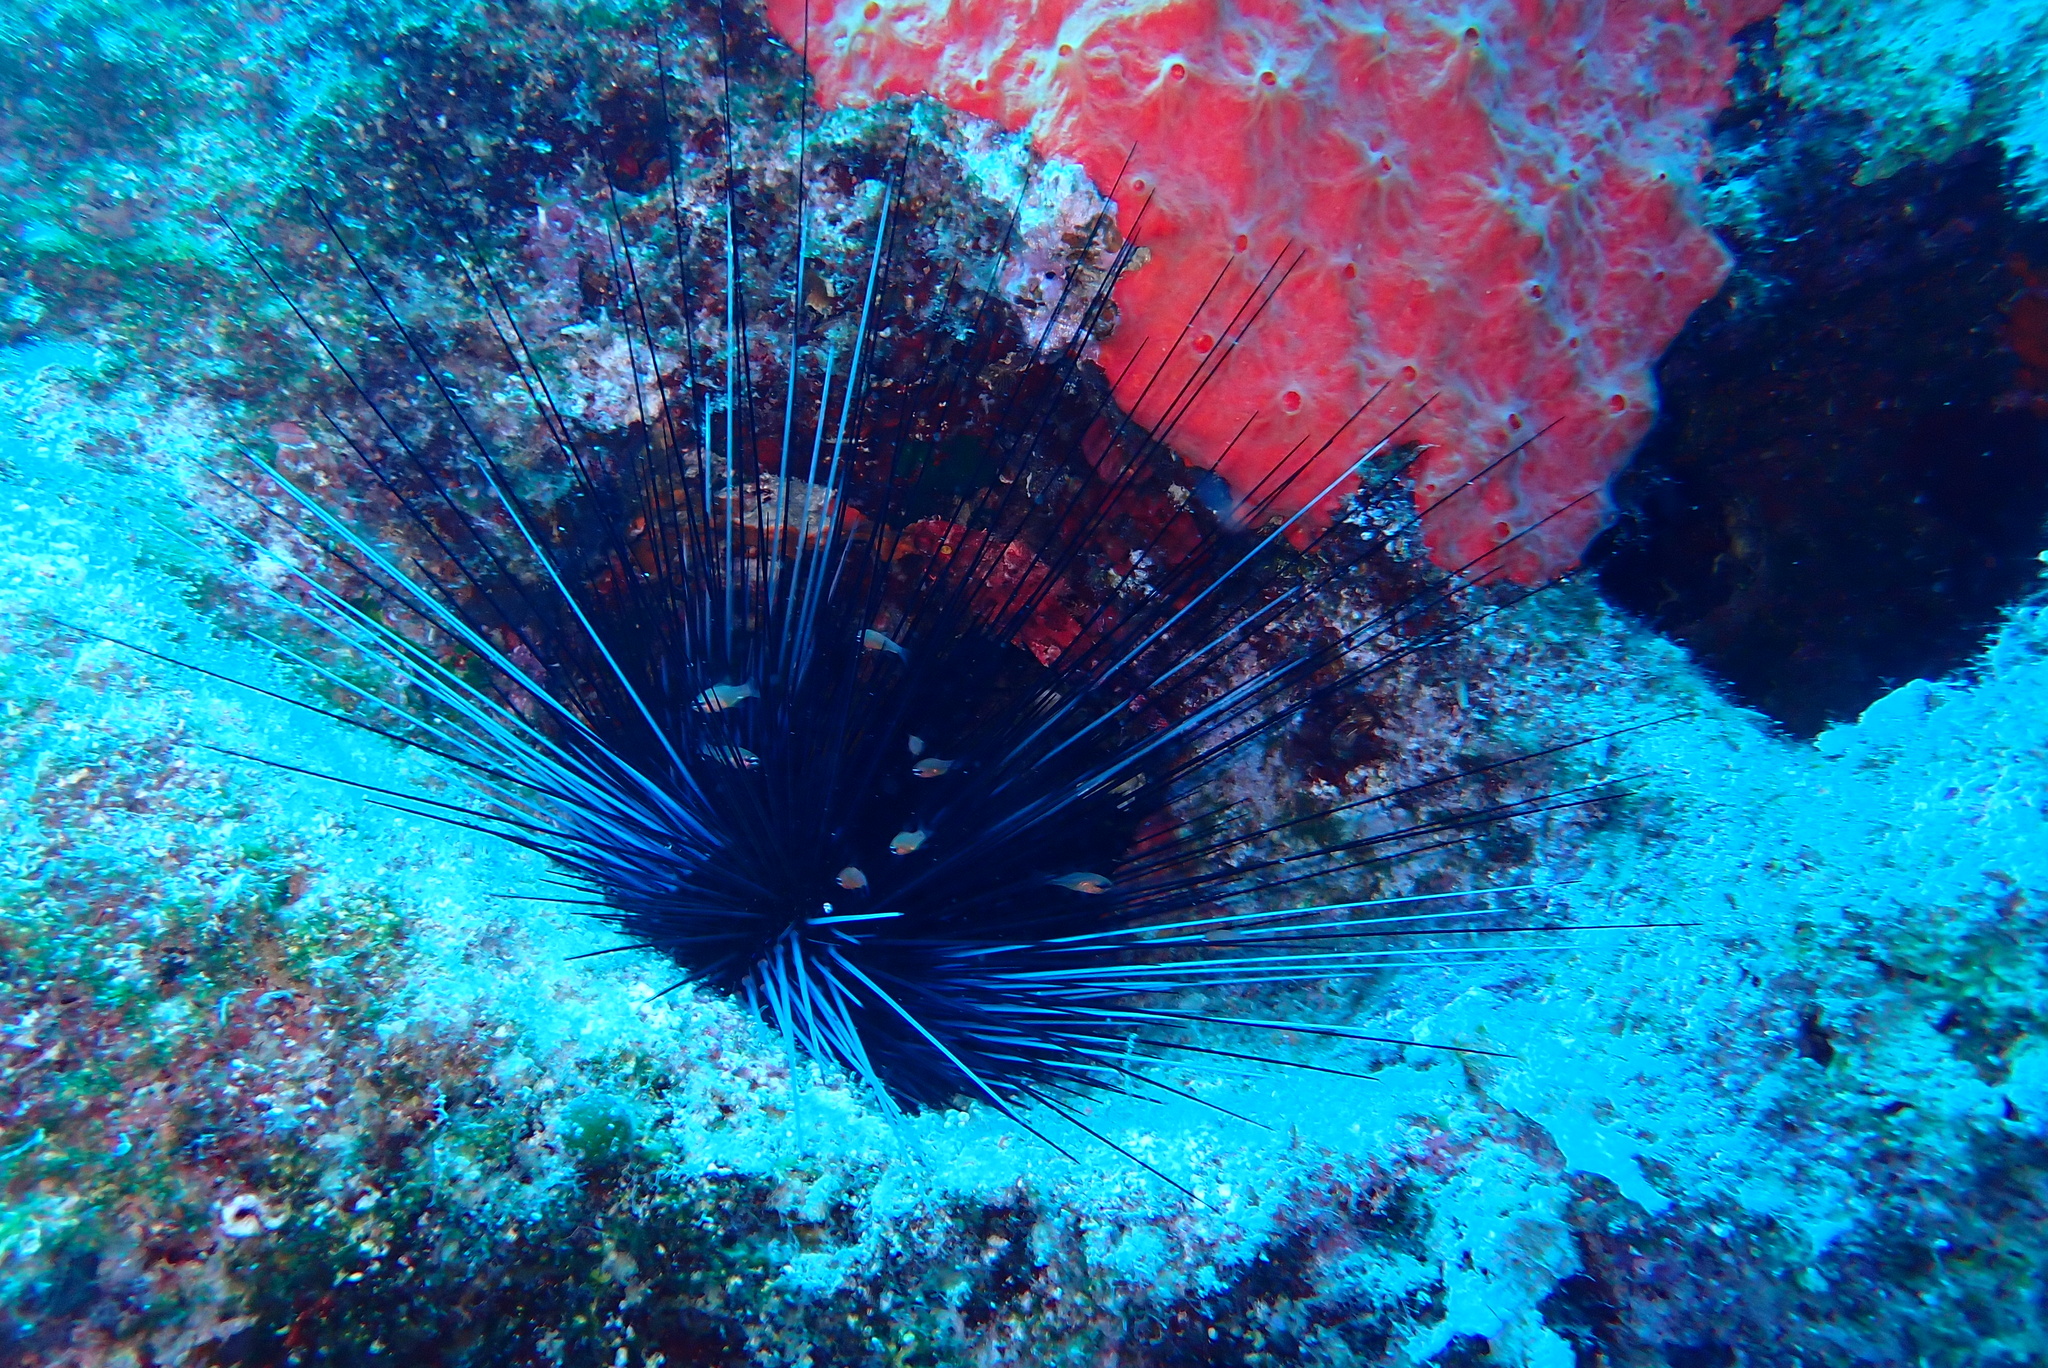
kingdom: Animalia
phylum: Chordata
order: Perciformes
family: Apogonidae
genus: Apogon
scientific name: Apogon imberbis
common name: Cardinal fish
